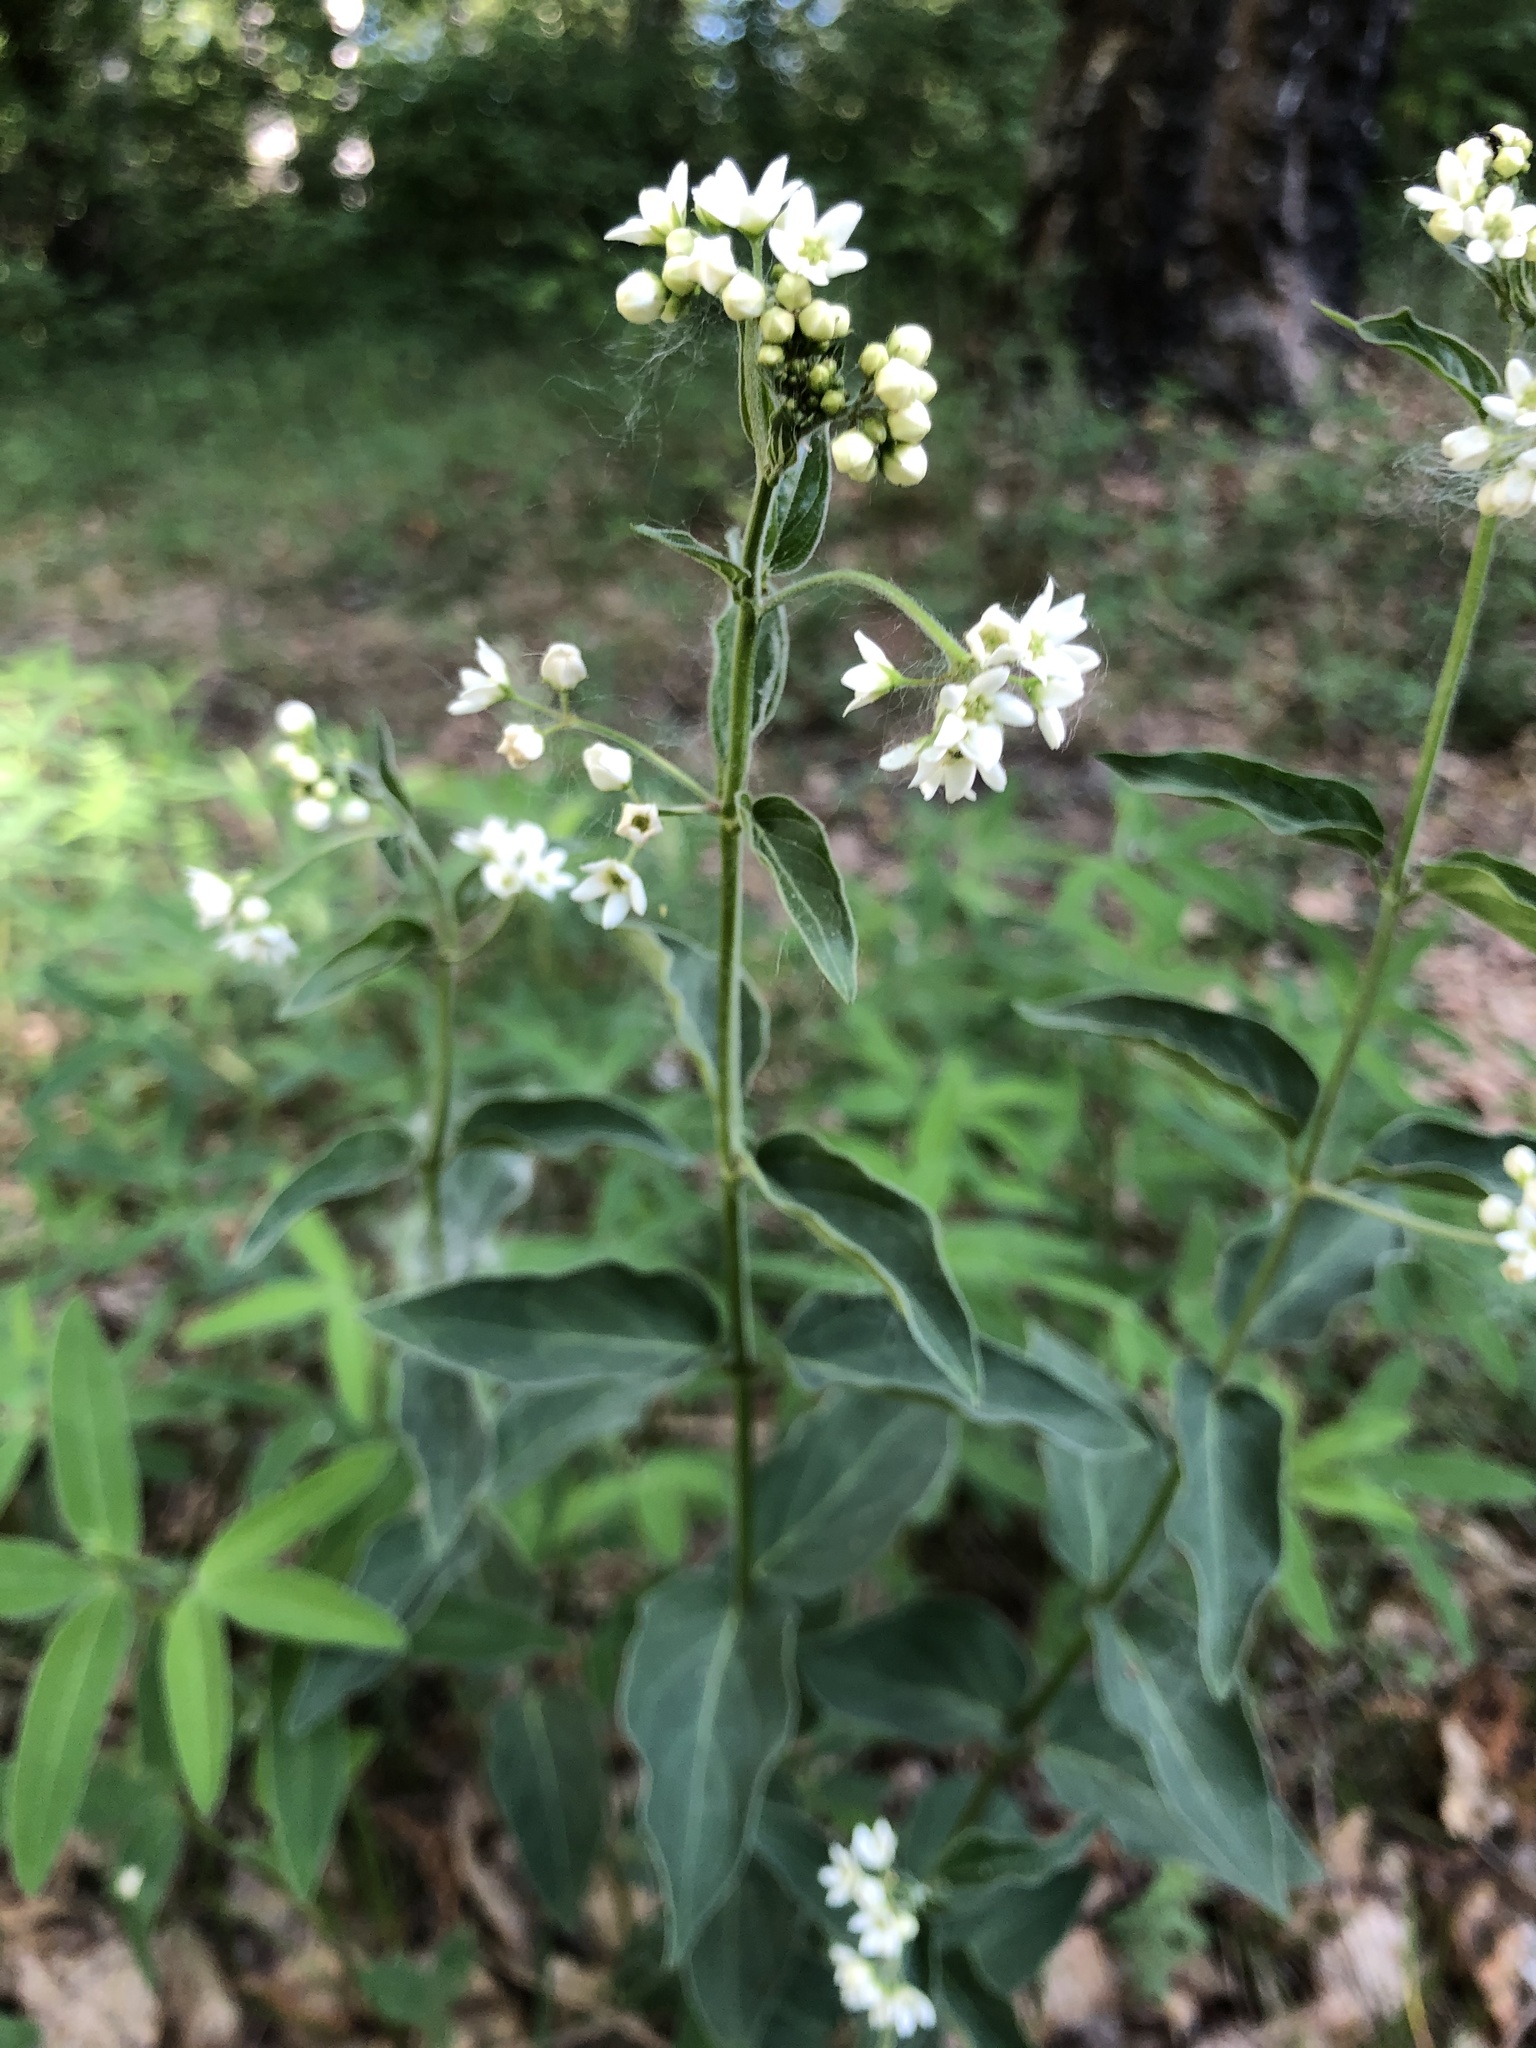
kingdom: Plantae
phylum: Tracheophyta
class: Magnoliopsida
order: Gentianales
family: Apocynaceae
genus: Vincetoxicum
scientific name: Vincetoxicum hirundinaria
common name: White swallowwort
